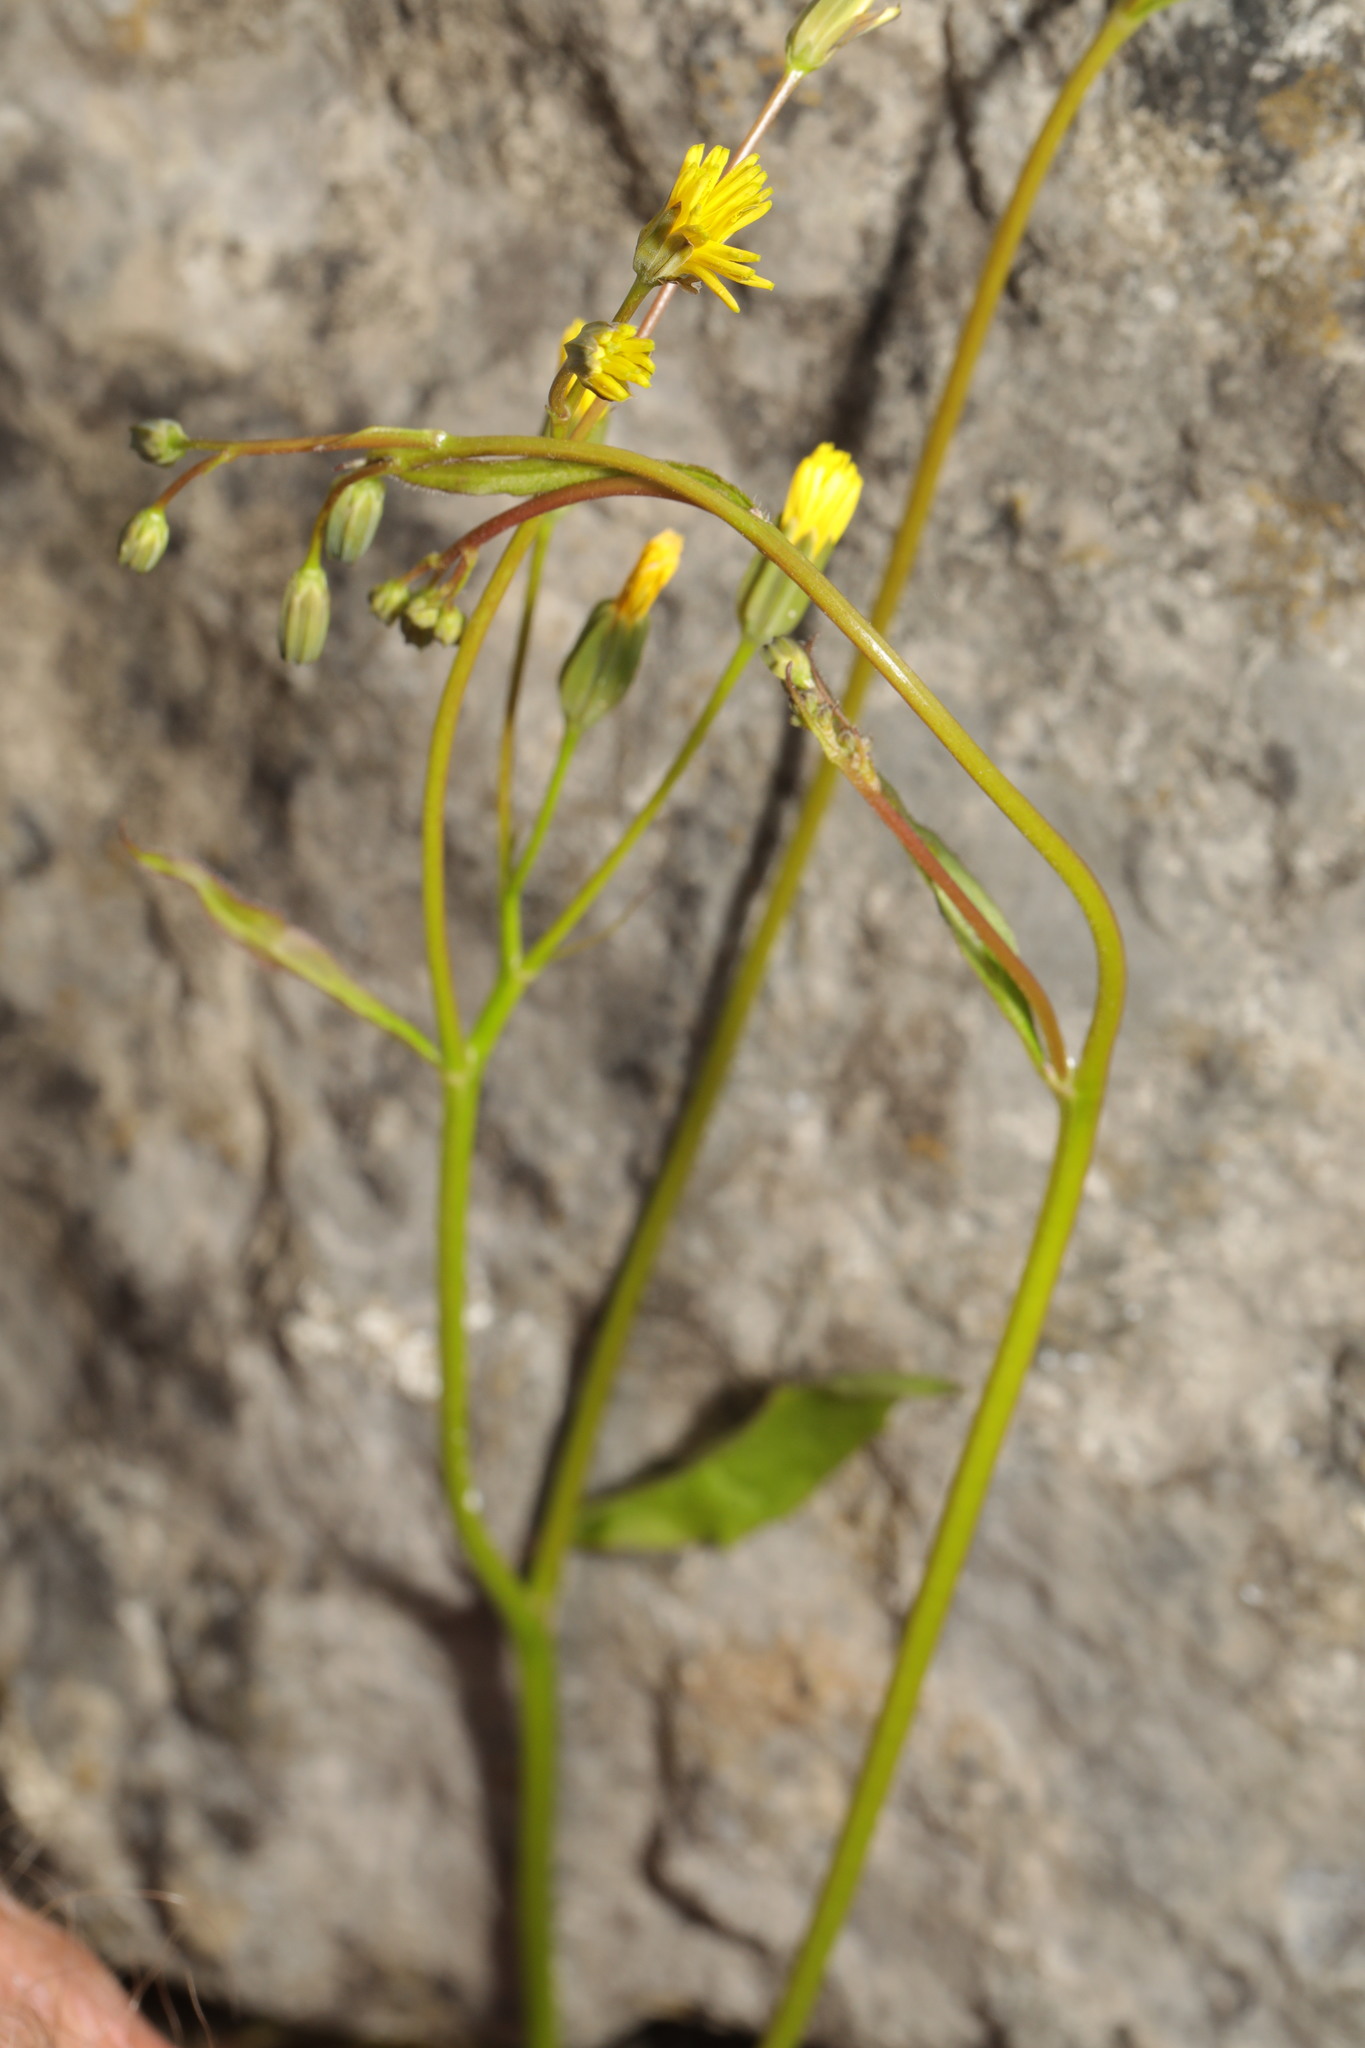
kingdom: Plantae
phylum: Tracheophyta
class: Magnoliopsida
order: Asterales
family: Asteraceae
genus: Lapsana
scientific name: Lapsana communis
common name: Nipplewort
